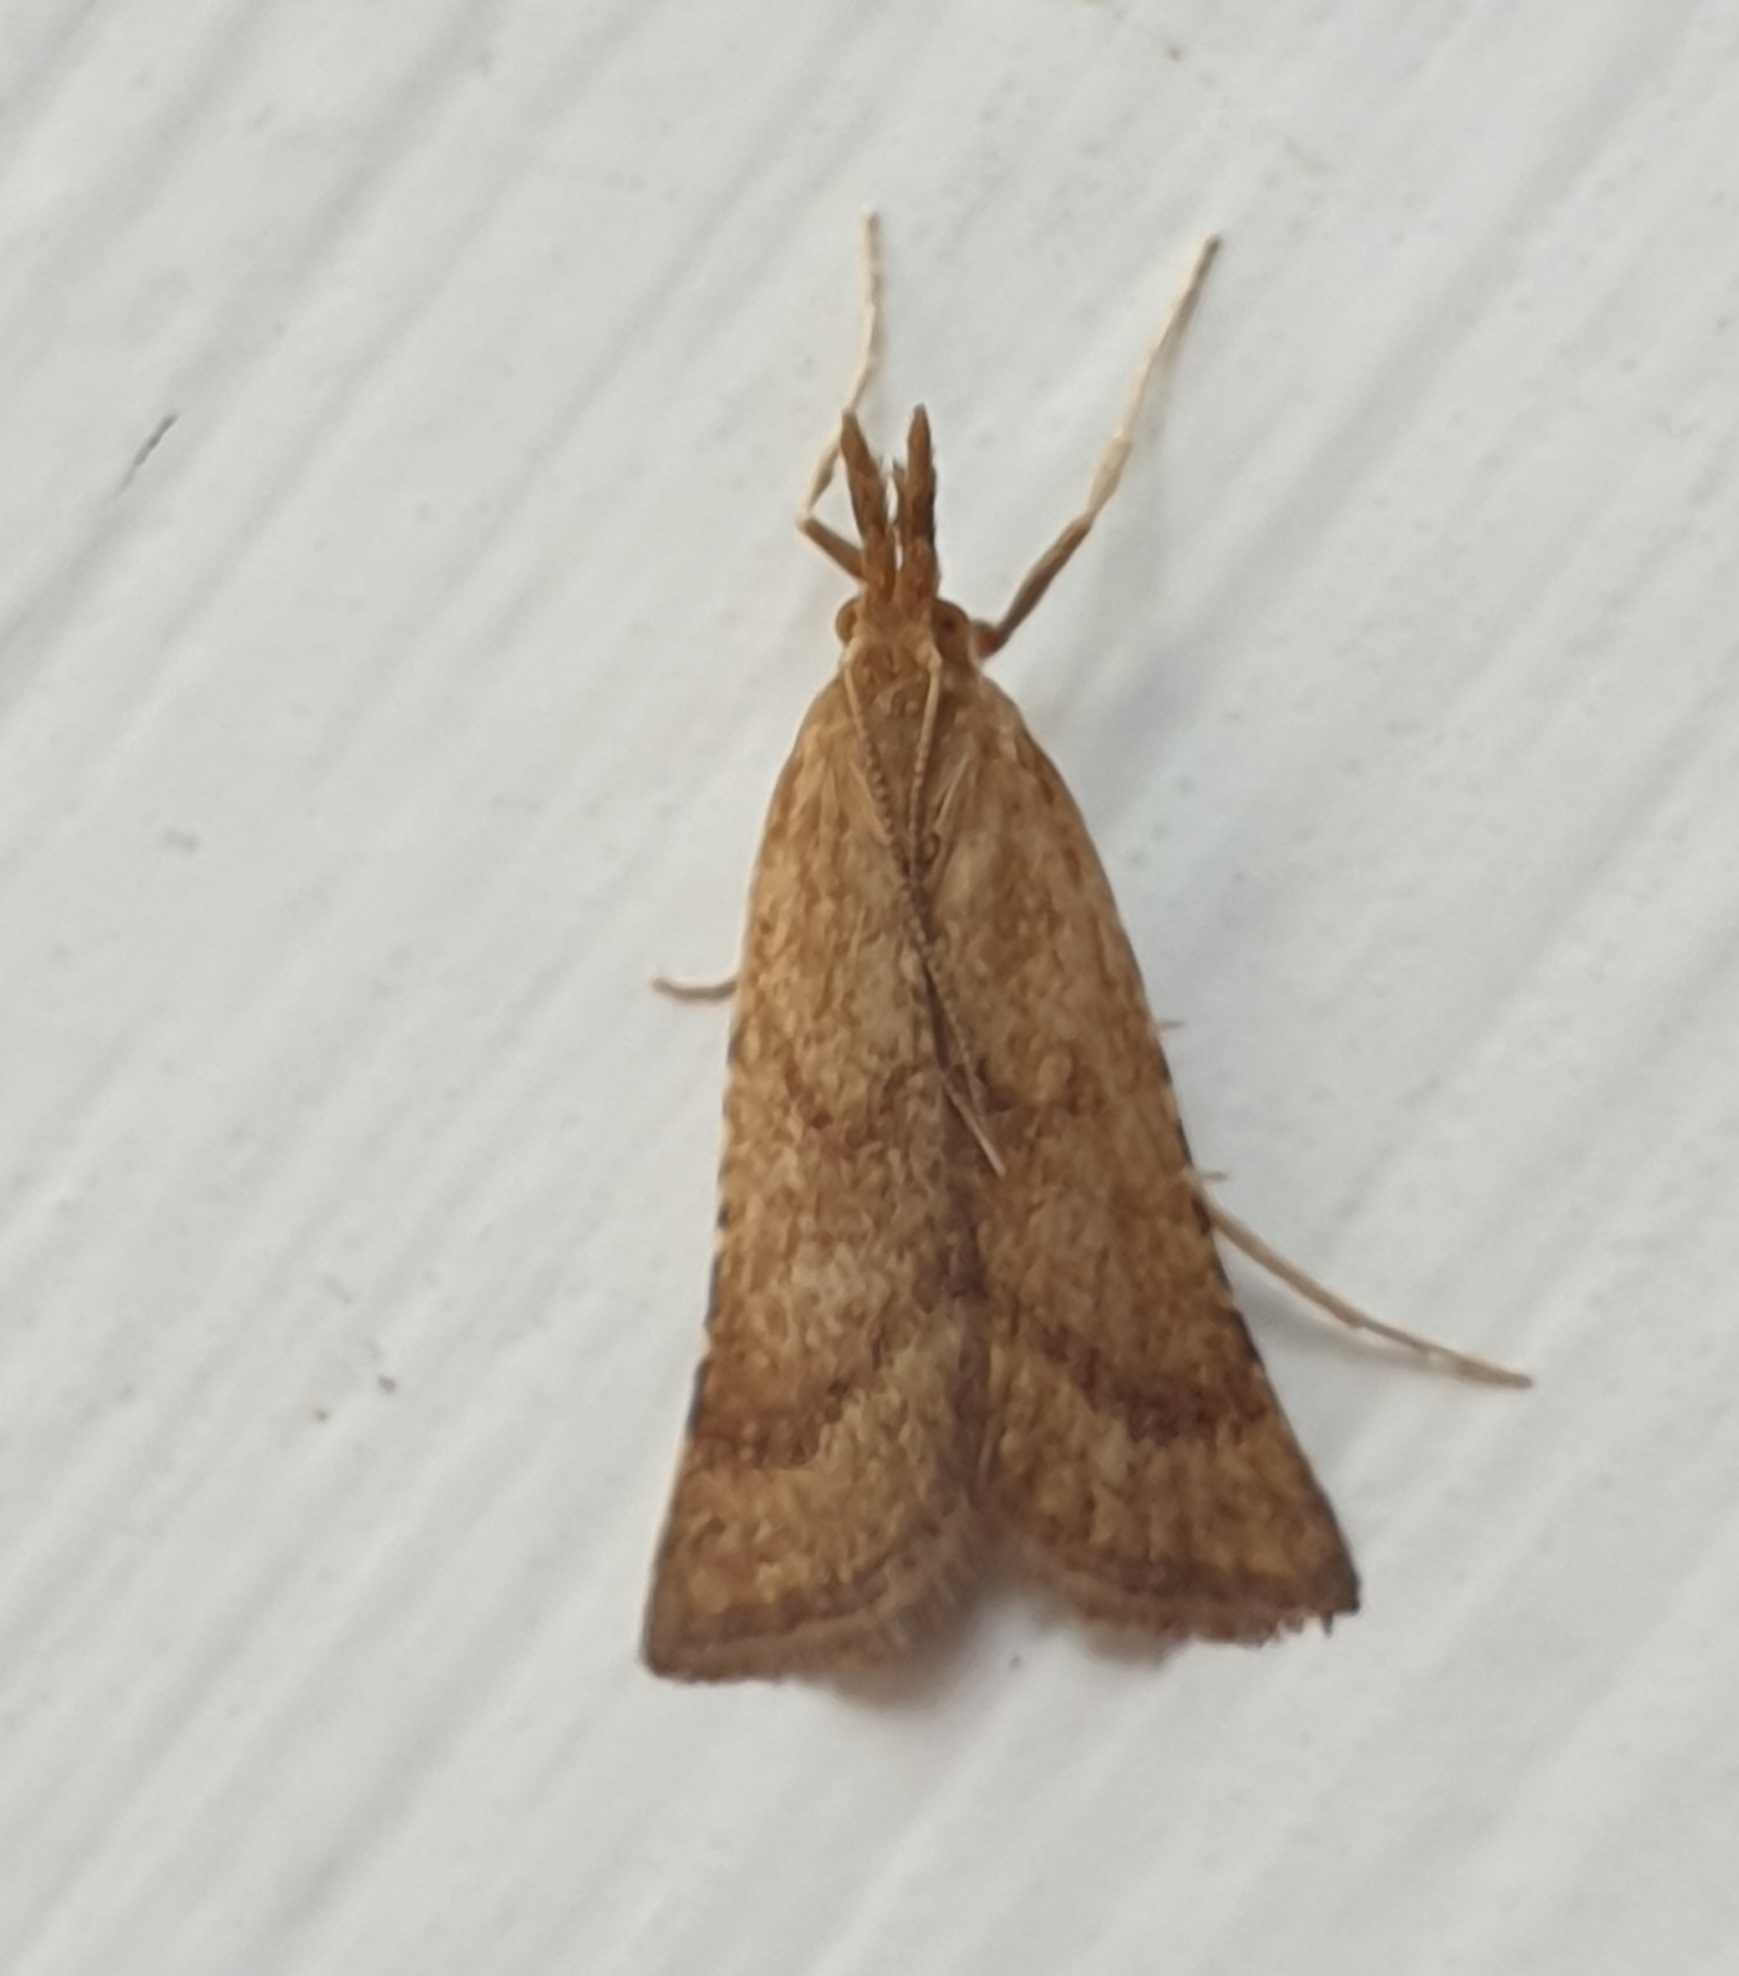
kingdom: Animalia
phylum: Arthropoda
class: Insecta
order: Lepidoptera
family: Pyralidae
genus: Synaphe
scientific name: Synaphe punctalis
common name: Long-legged tabby
